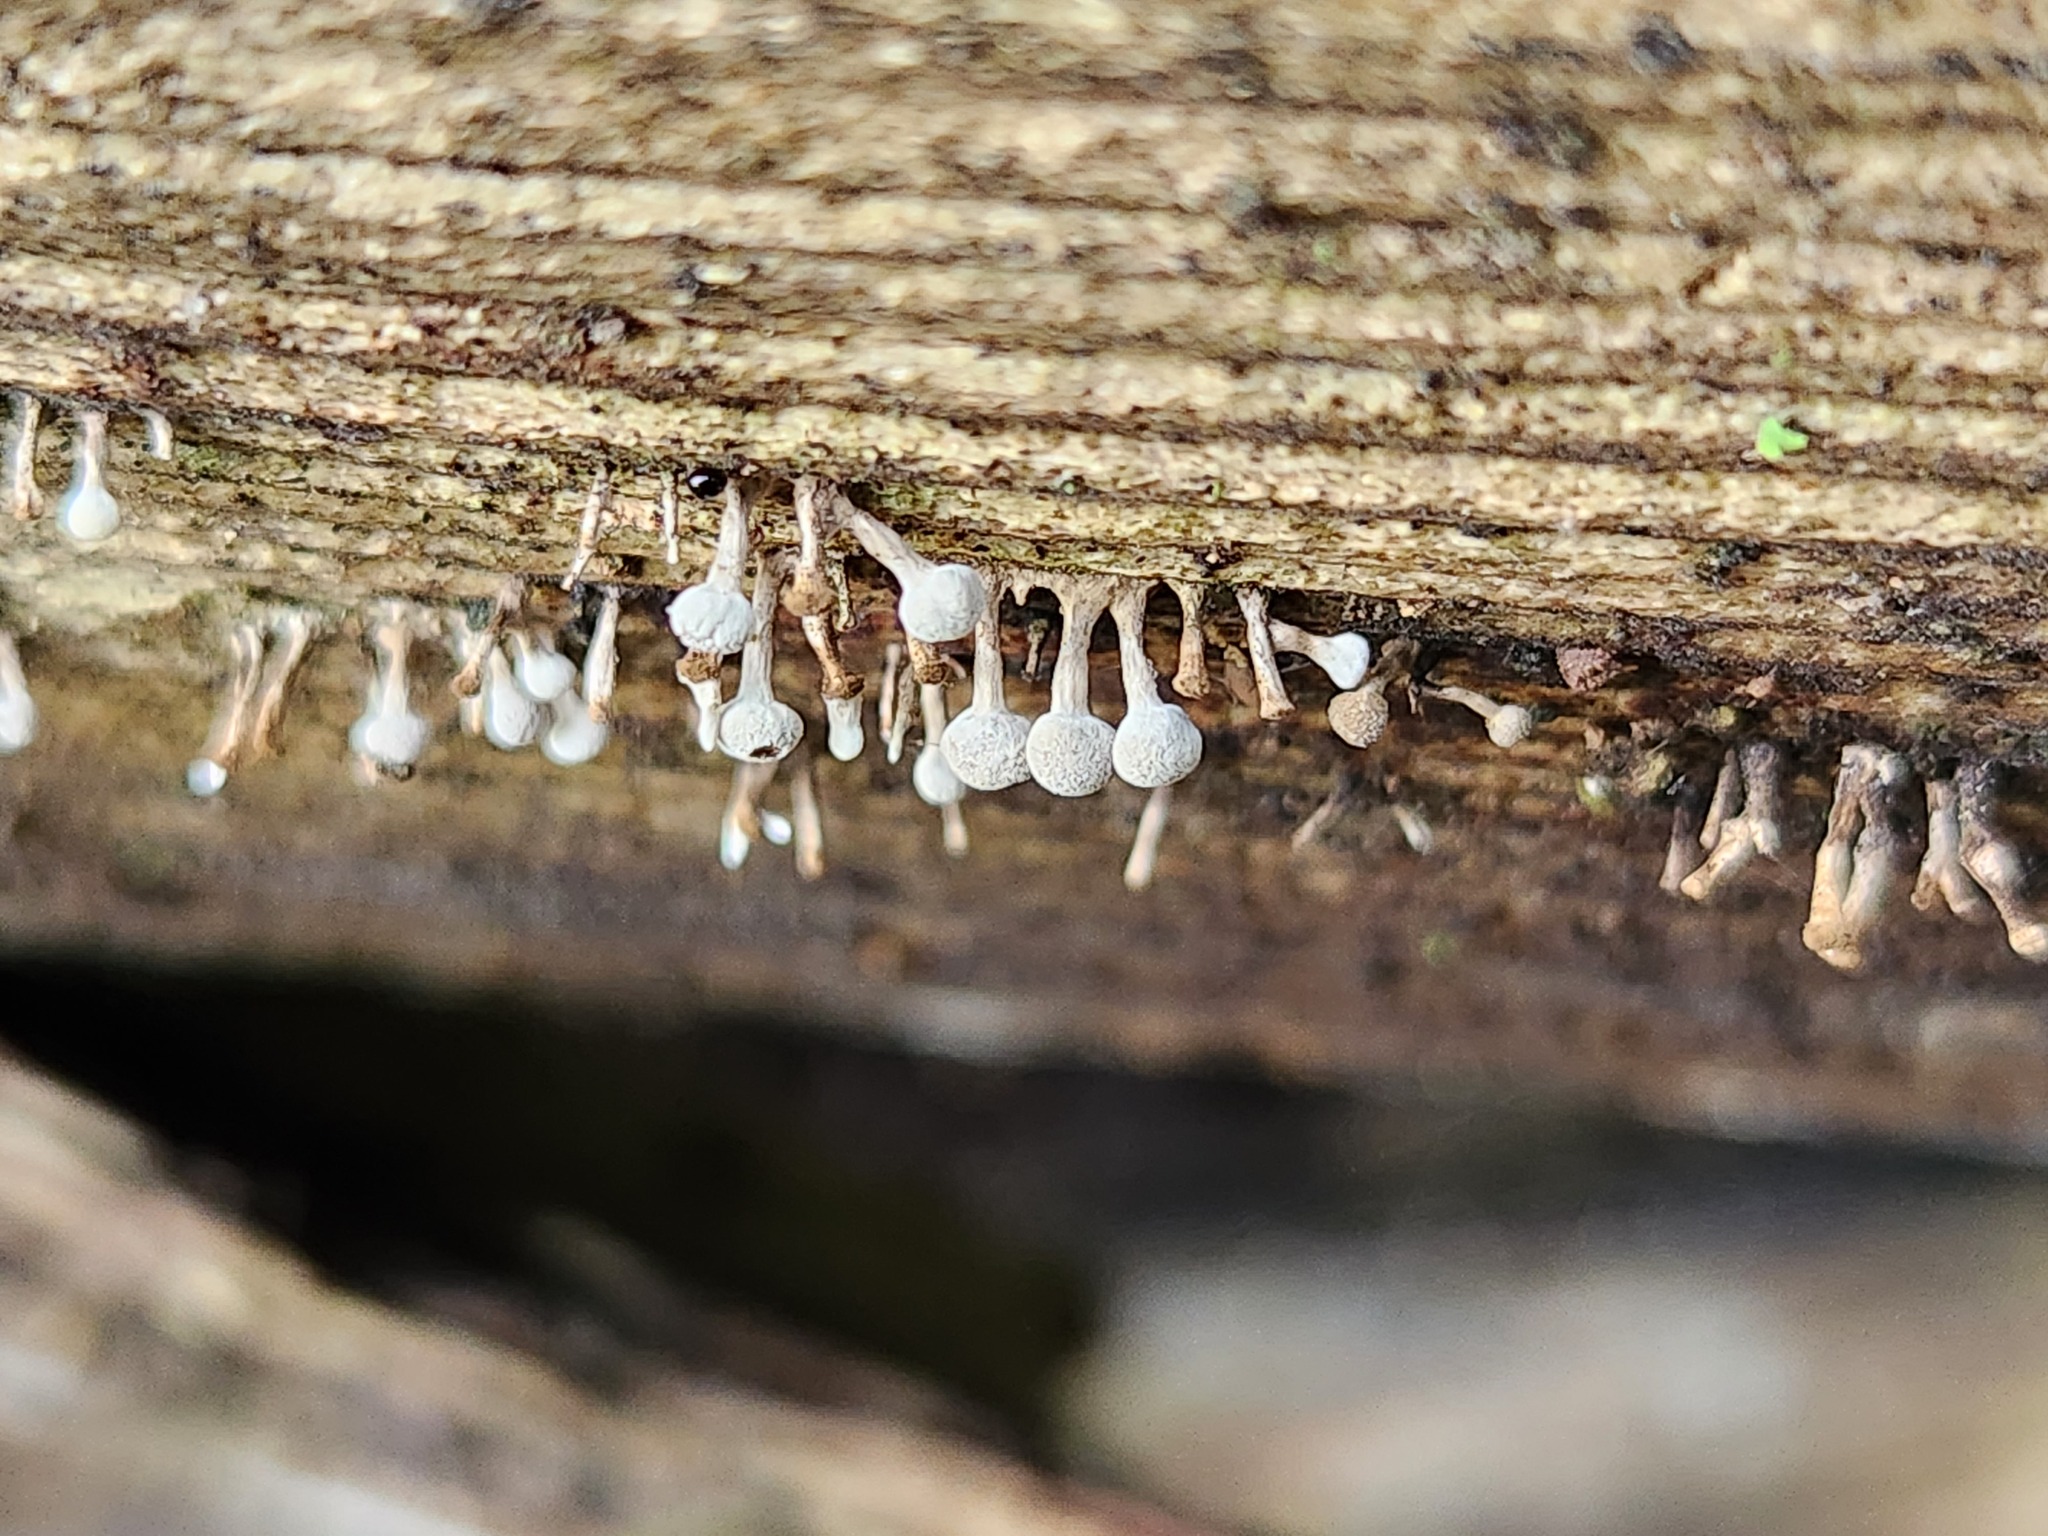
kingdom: Fungi
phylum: Basidiomycota
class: Atractiellomycetes
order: Atractiellales
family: Phleogenaceae
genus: Phleogena
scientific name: Phleogena faginea
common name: Fenugreek stalkball
